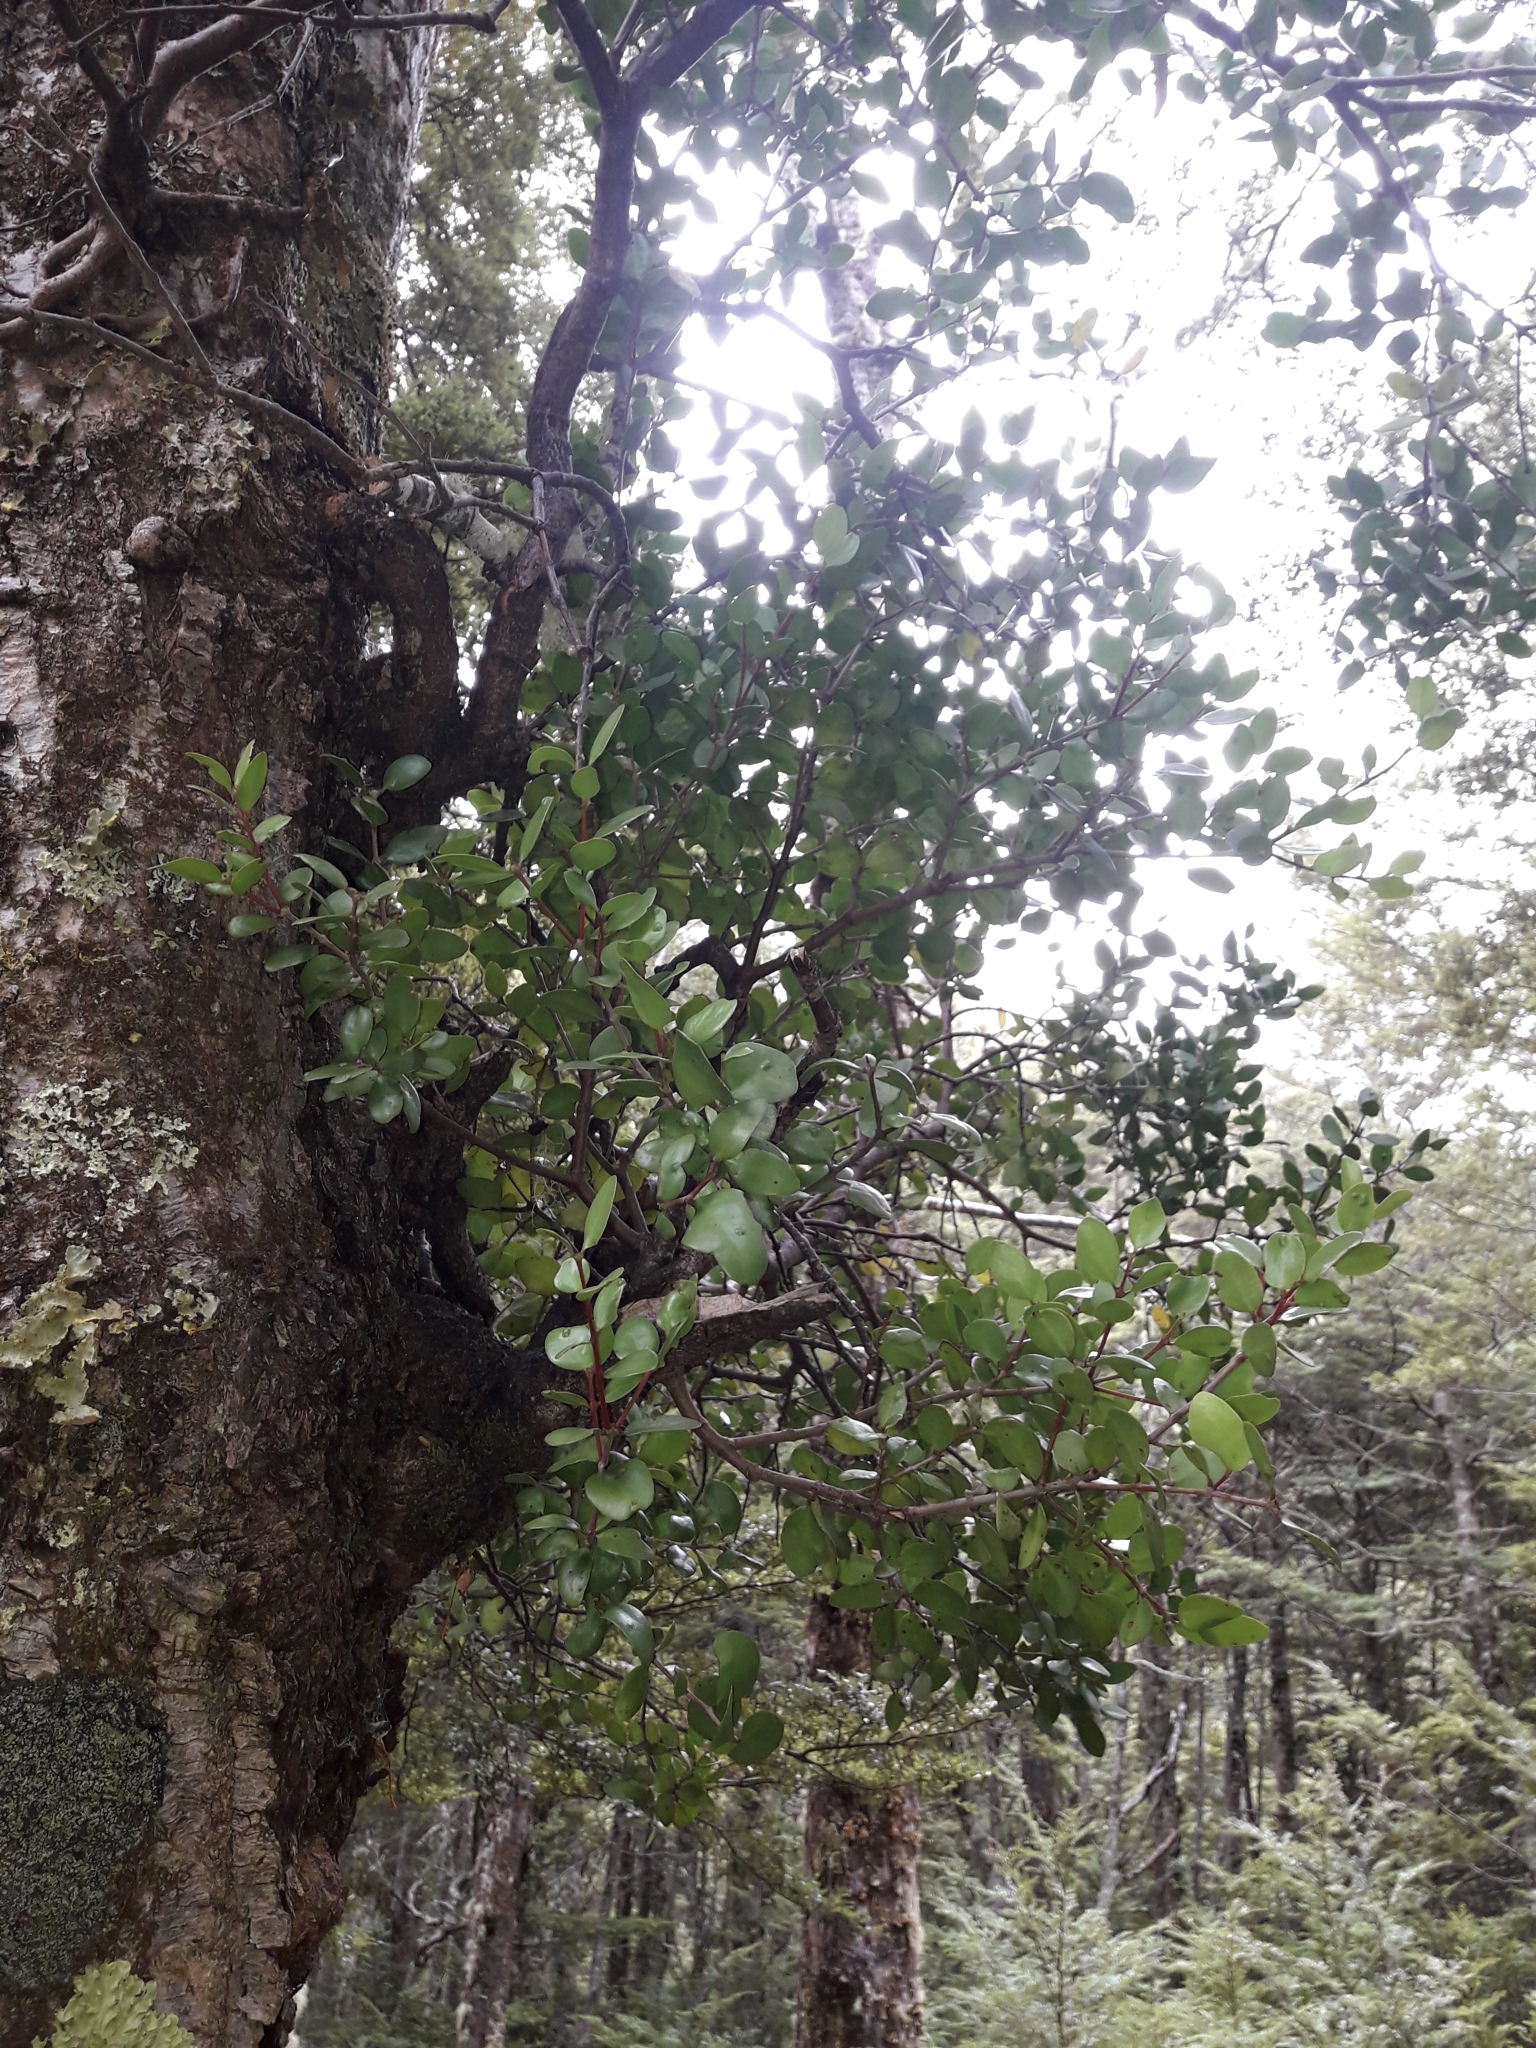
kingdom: Plantae
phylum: Tracheophyta
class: Magnoliopsida
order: Santalales
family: Loranthaceae
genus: Peraxilla
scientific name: Peraxilla tetrapetala
